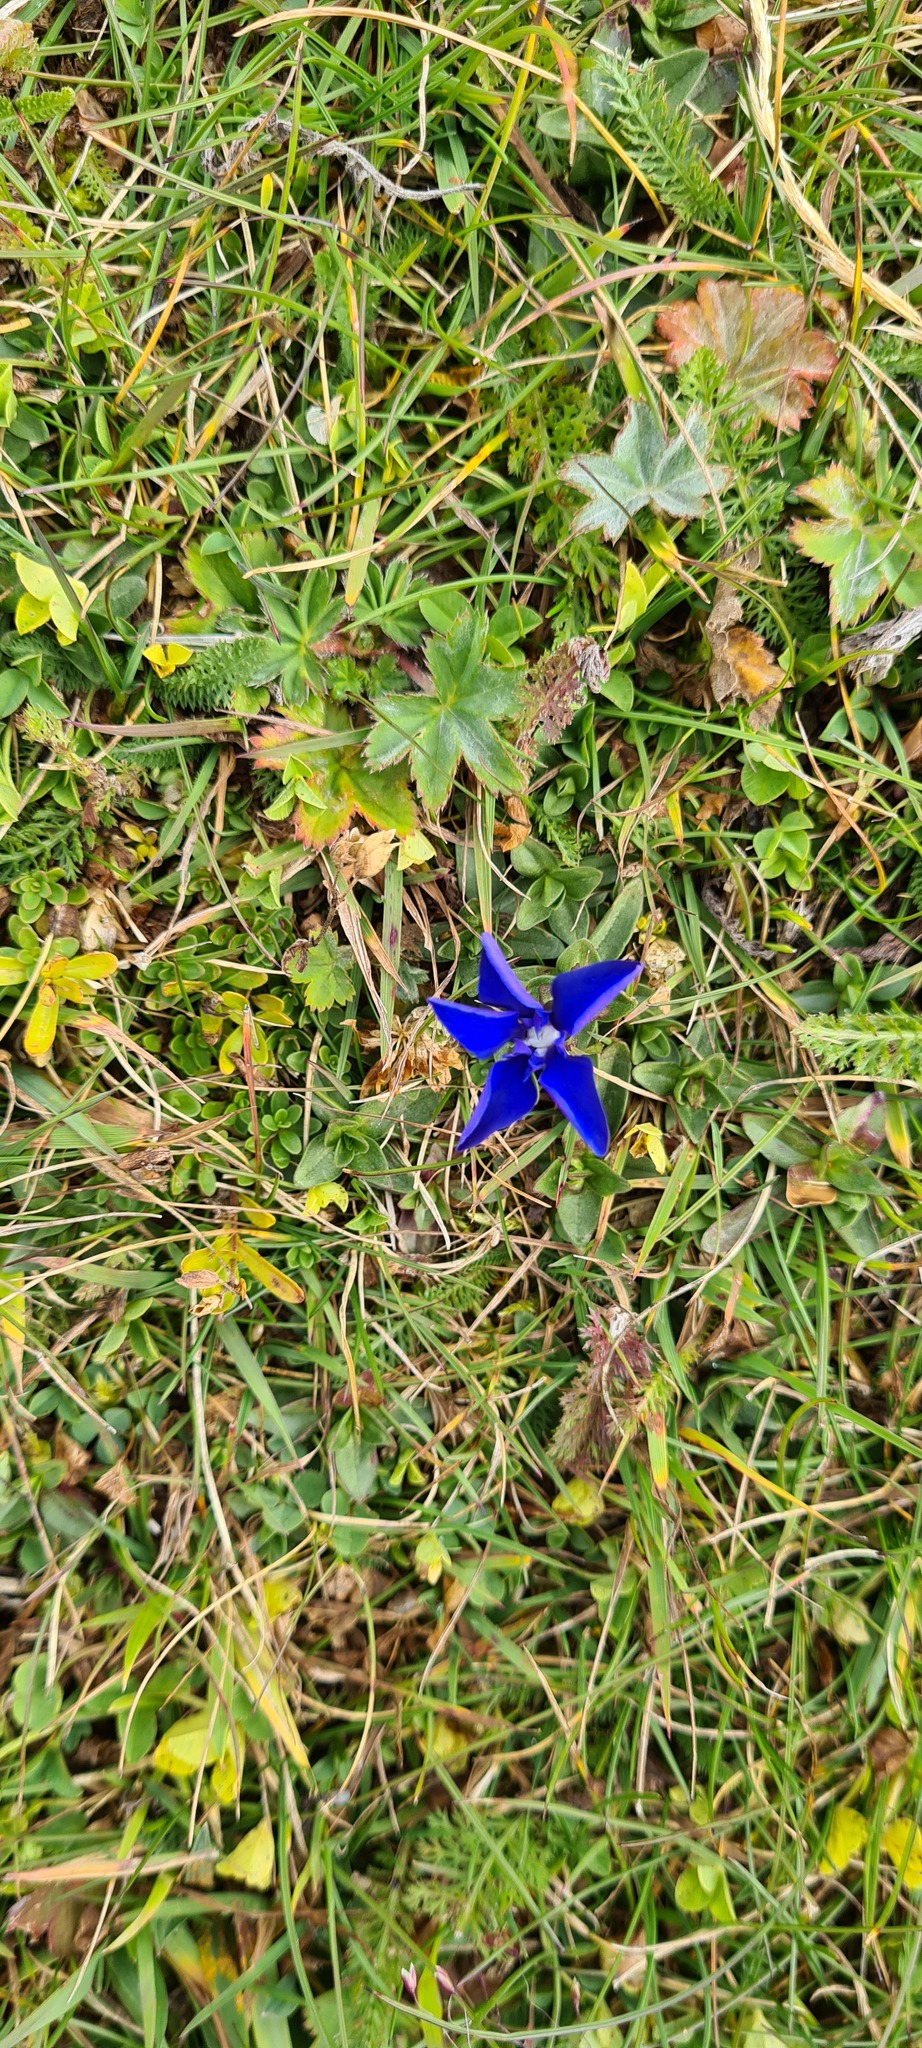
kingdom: Plantae
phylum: Tracheophyta
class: Magnoliopsida
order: Gentianales
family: Gentianaceae
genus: Gentiana
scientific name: Gentiana verna
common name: Spring gentian
